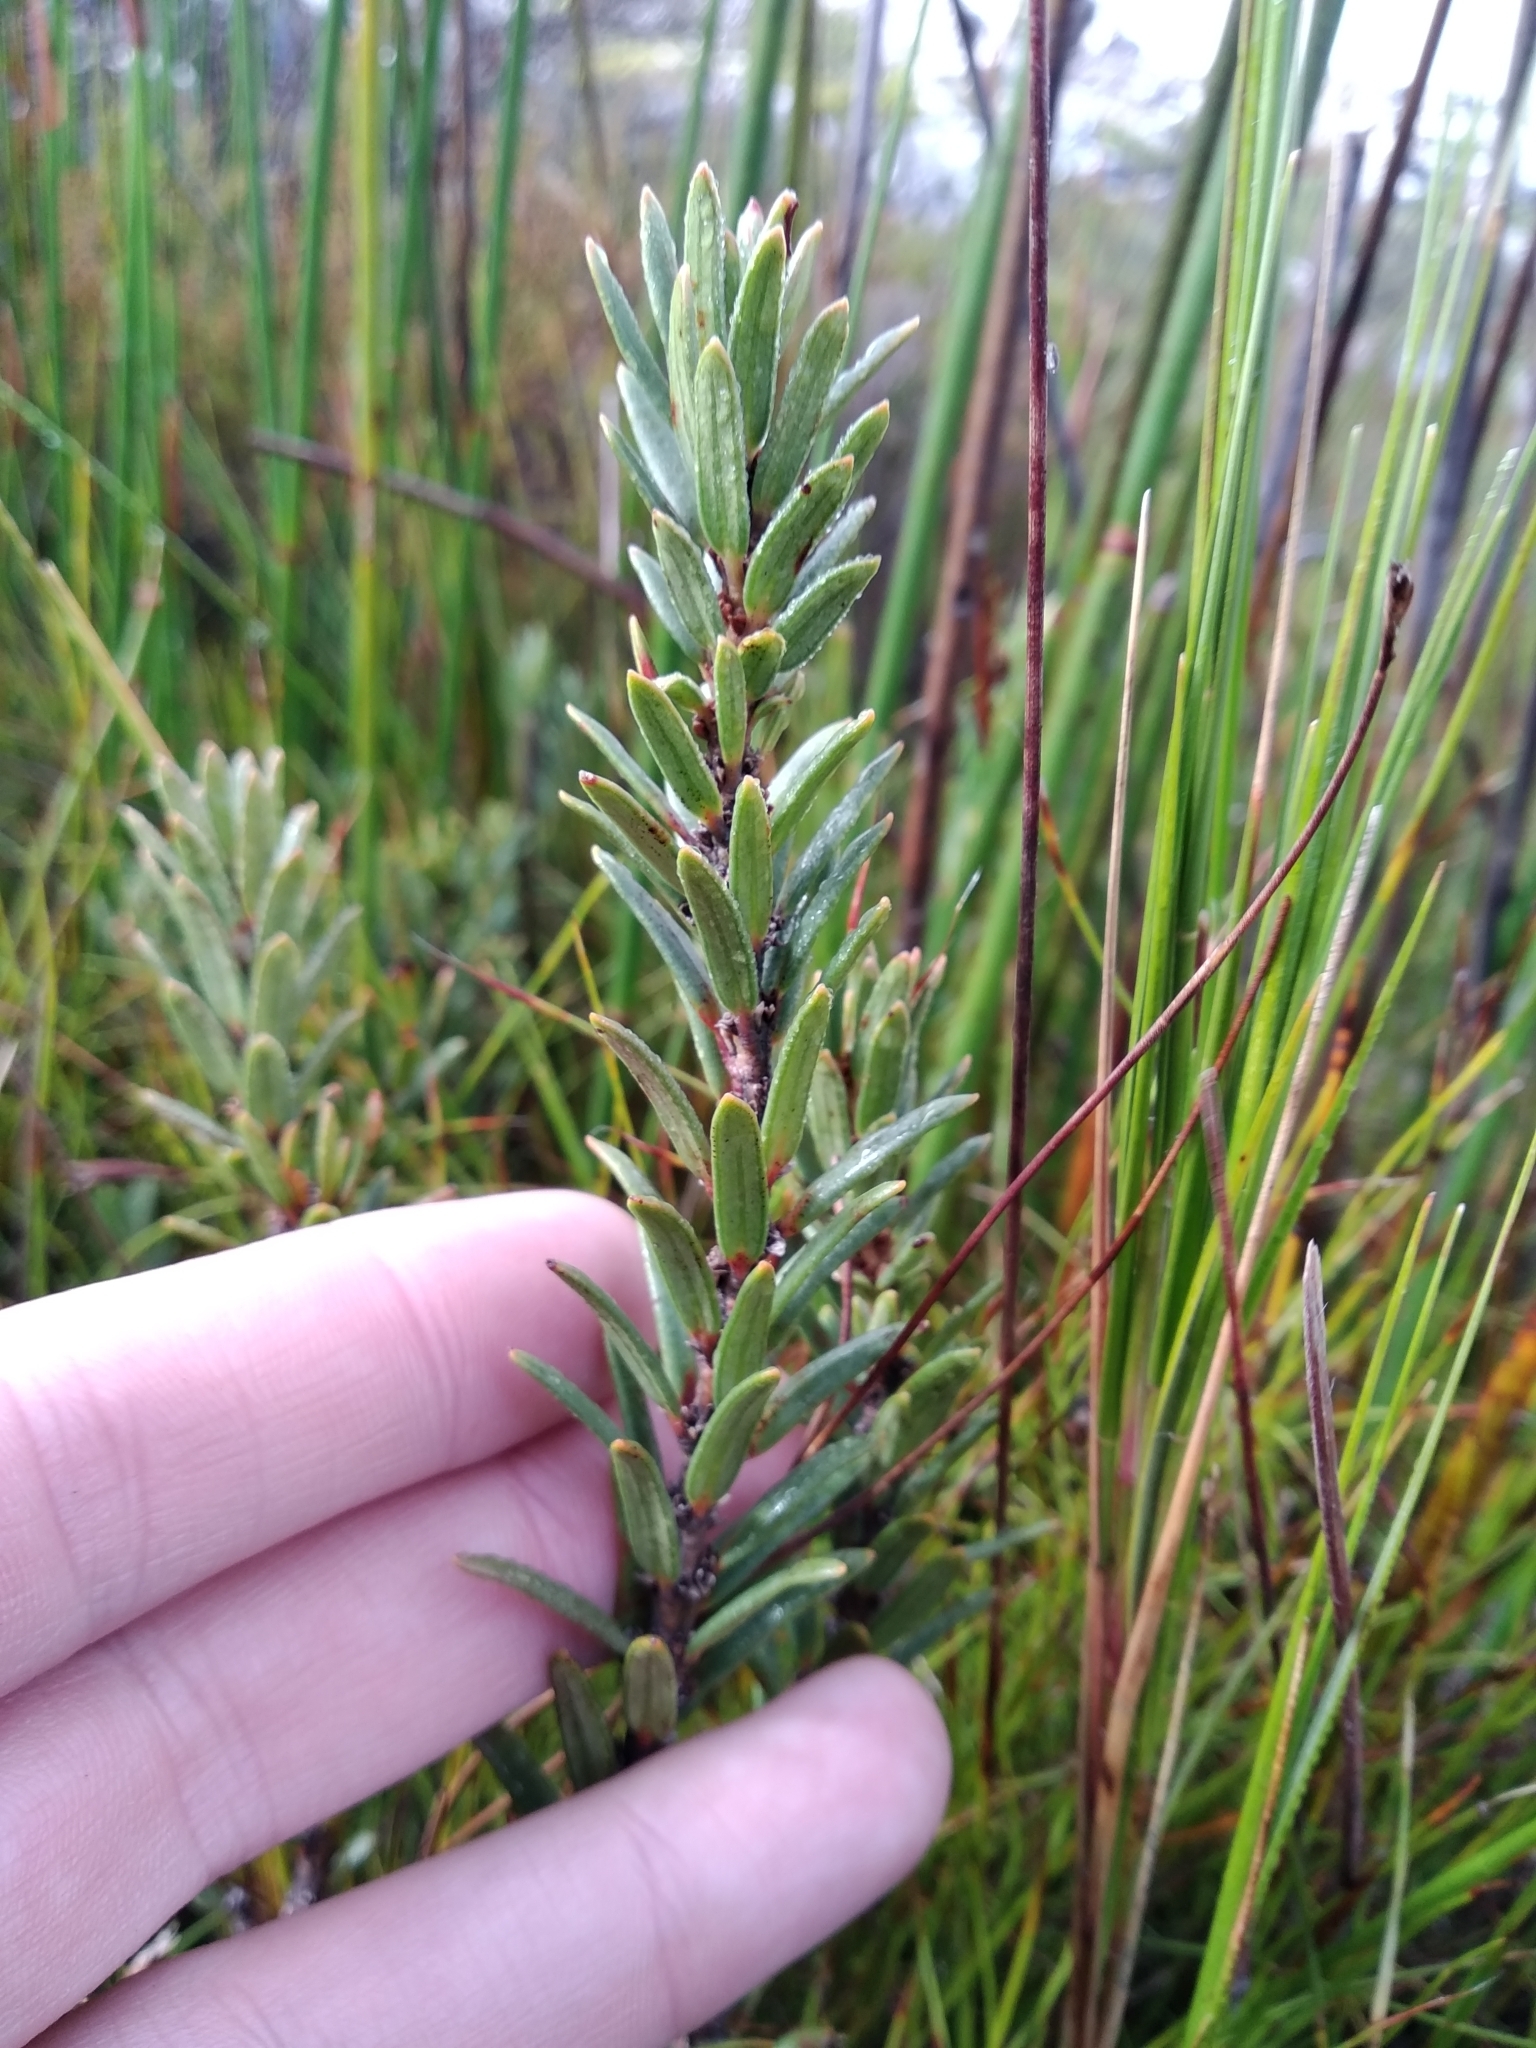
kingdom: Plantae
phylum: Tracheophyta
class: Magnoliopsida
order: Malpighiales
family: Peraceae
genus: Clutia
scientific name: Clutia polygonoides
